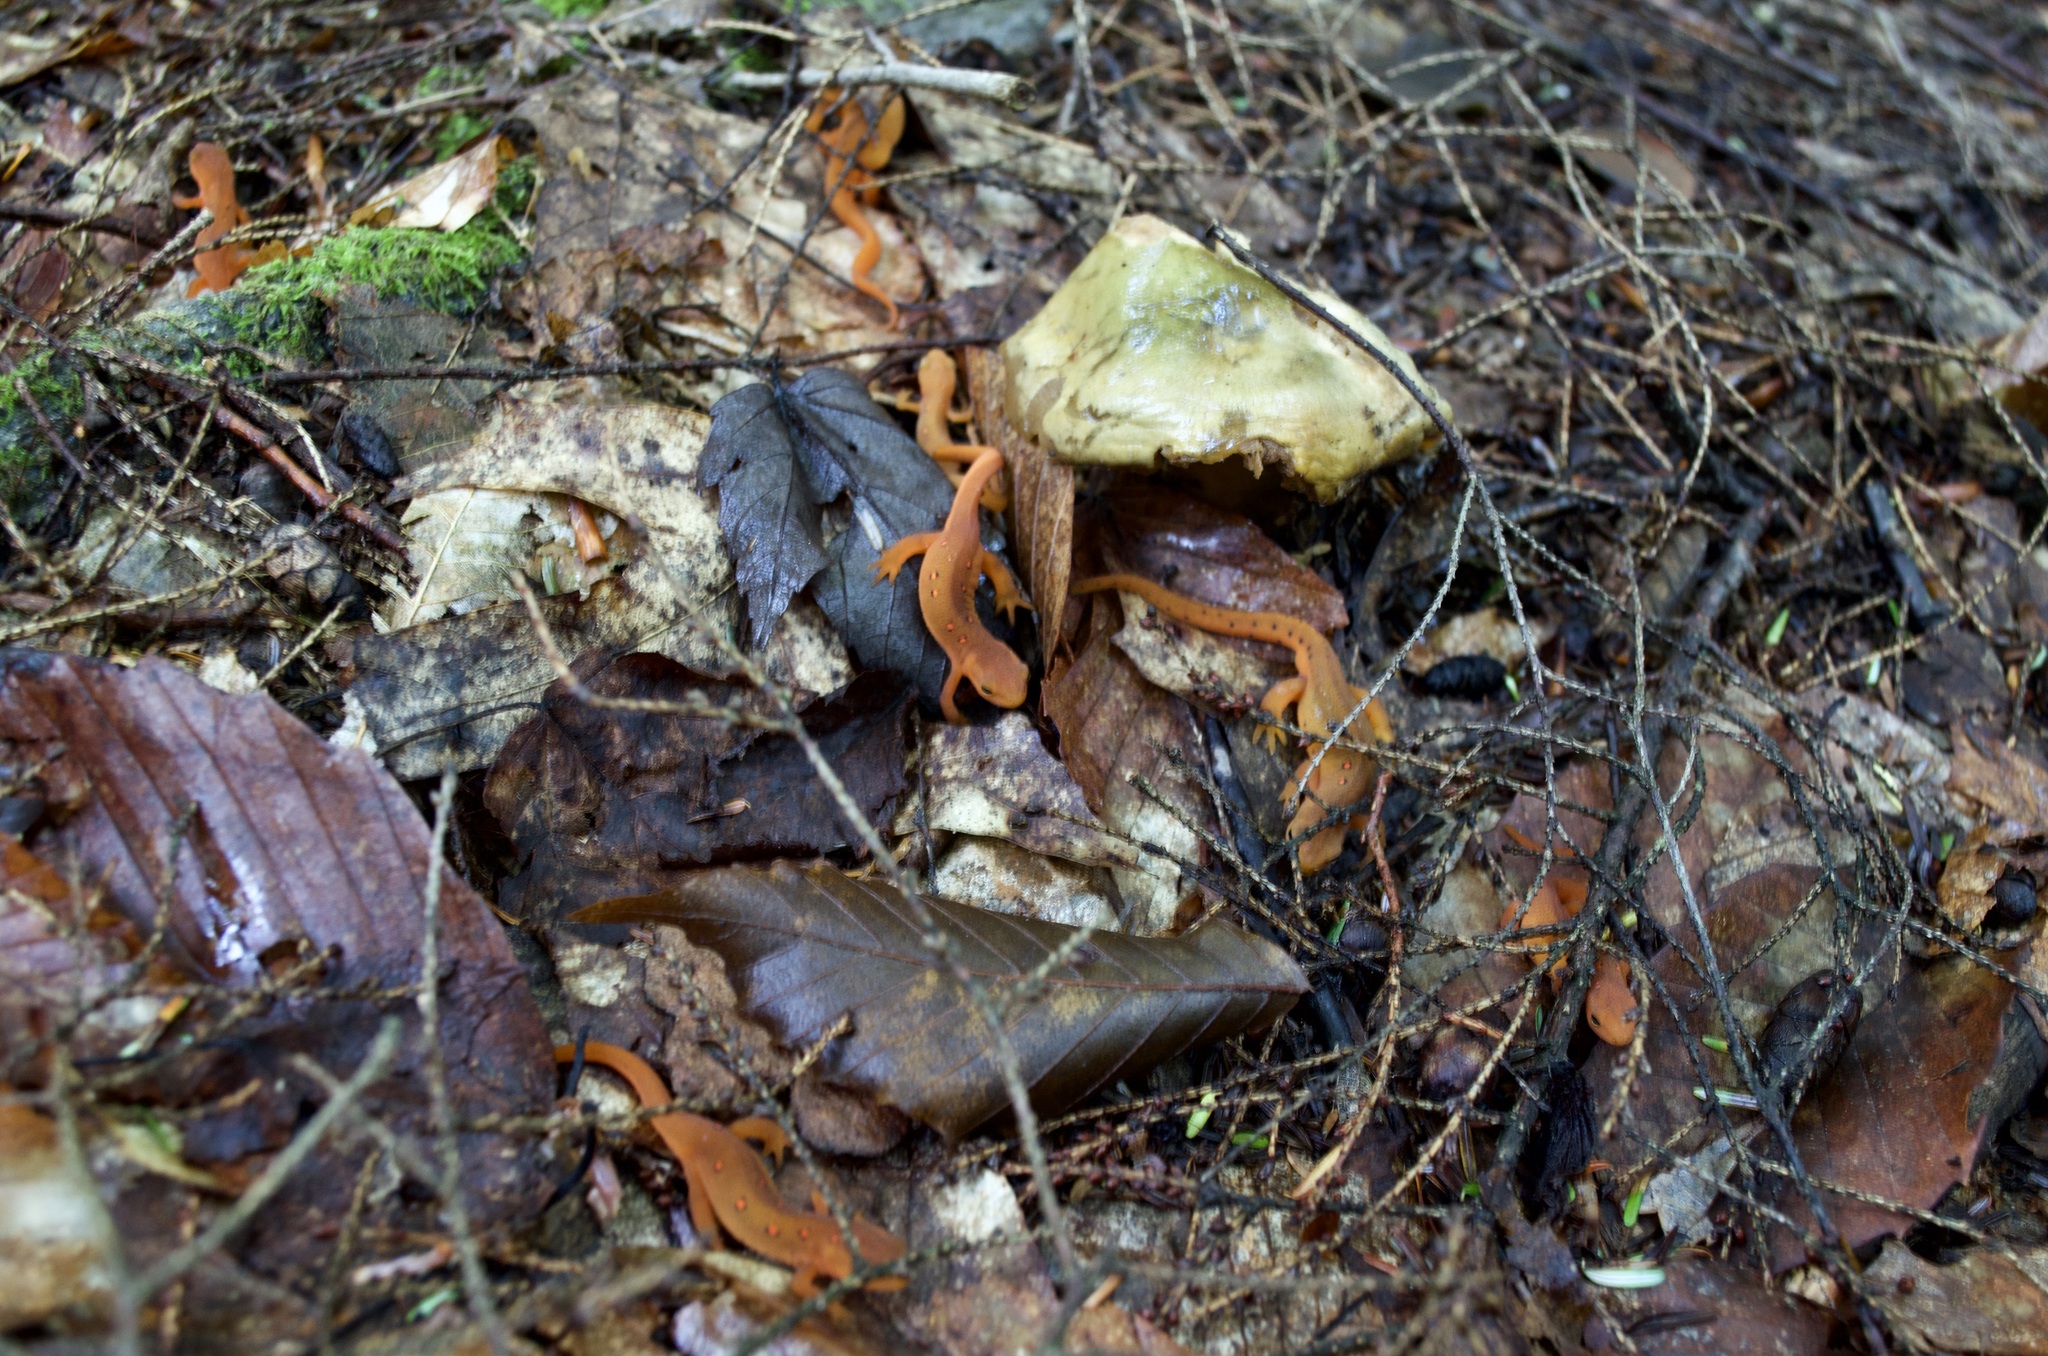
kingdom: Animalia
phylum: Chordata
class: Amphibia
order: Caudata
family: Salamandridae
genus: Notophthalmus
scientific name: Notophthalmus viridescens
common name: Eastern newt
